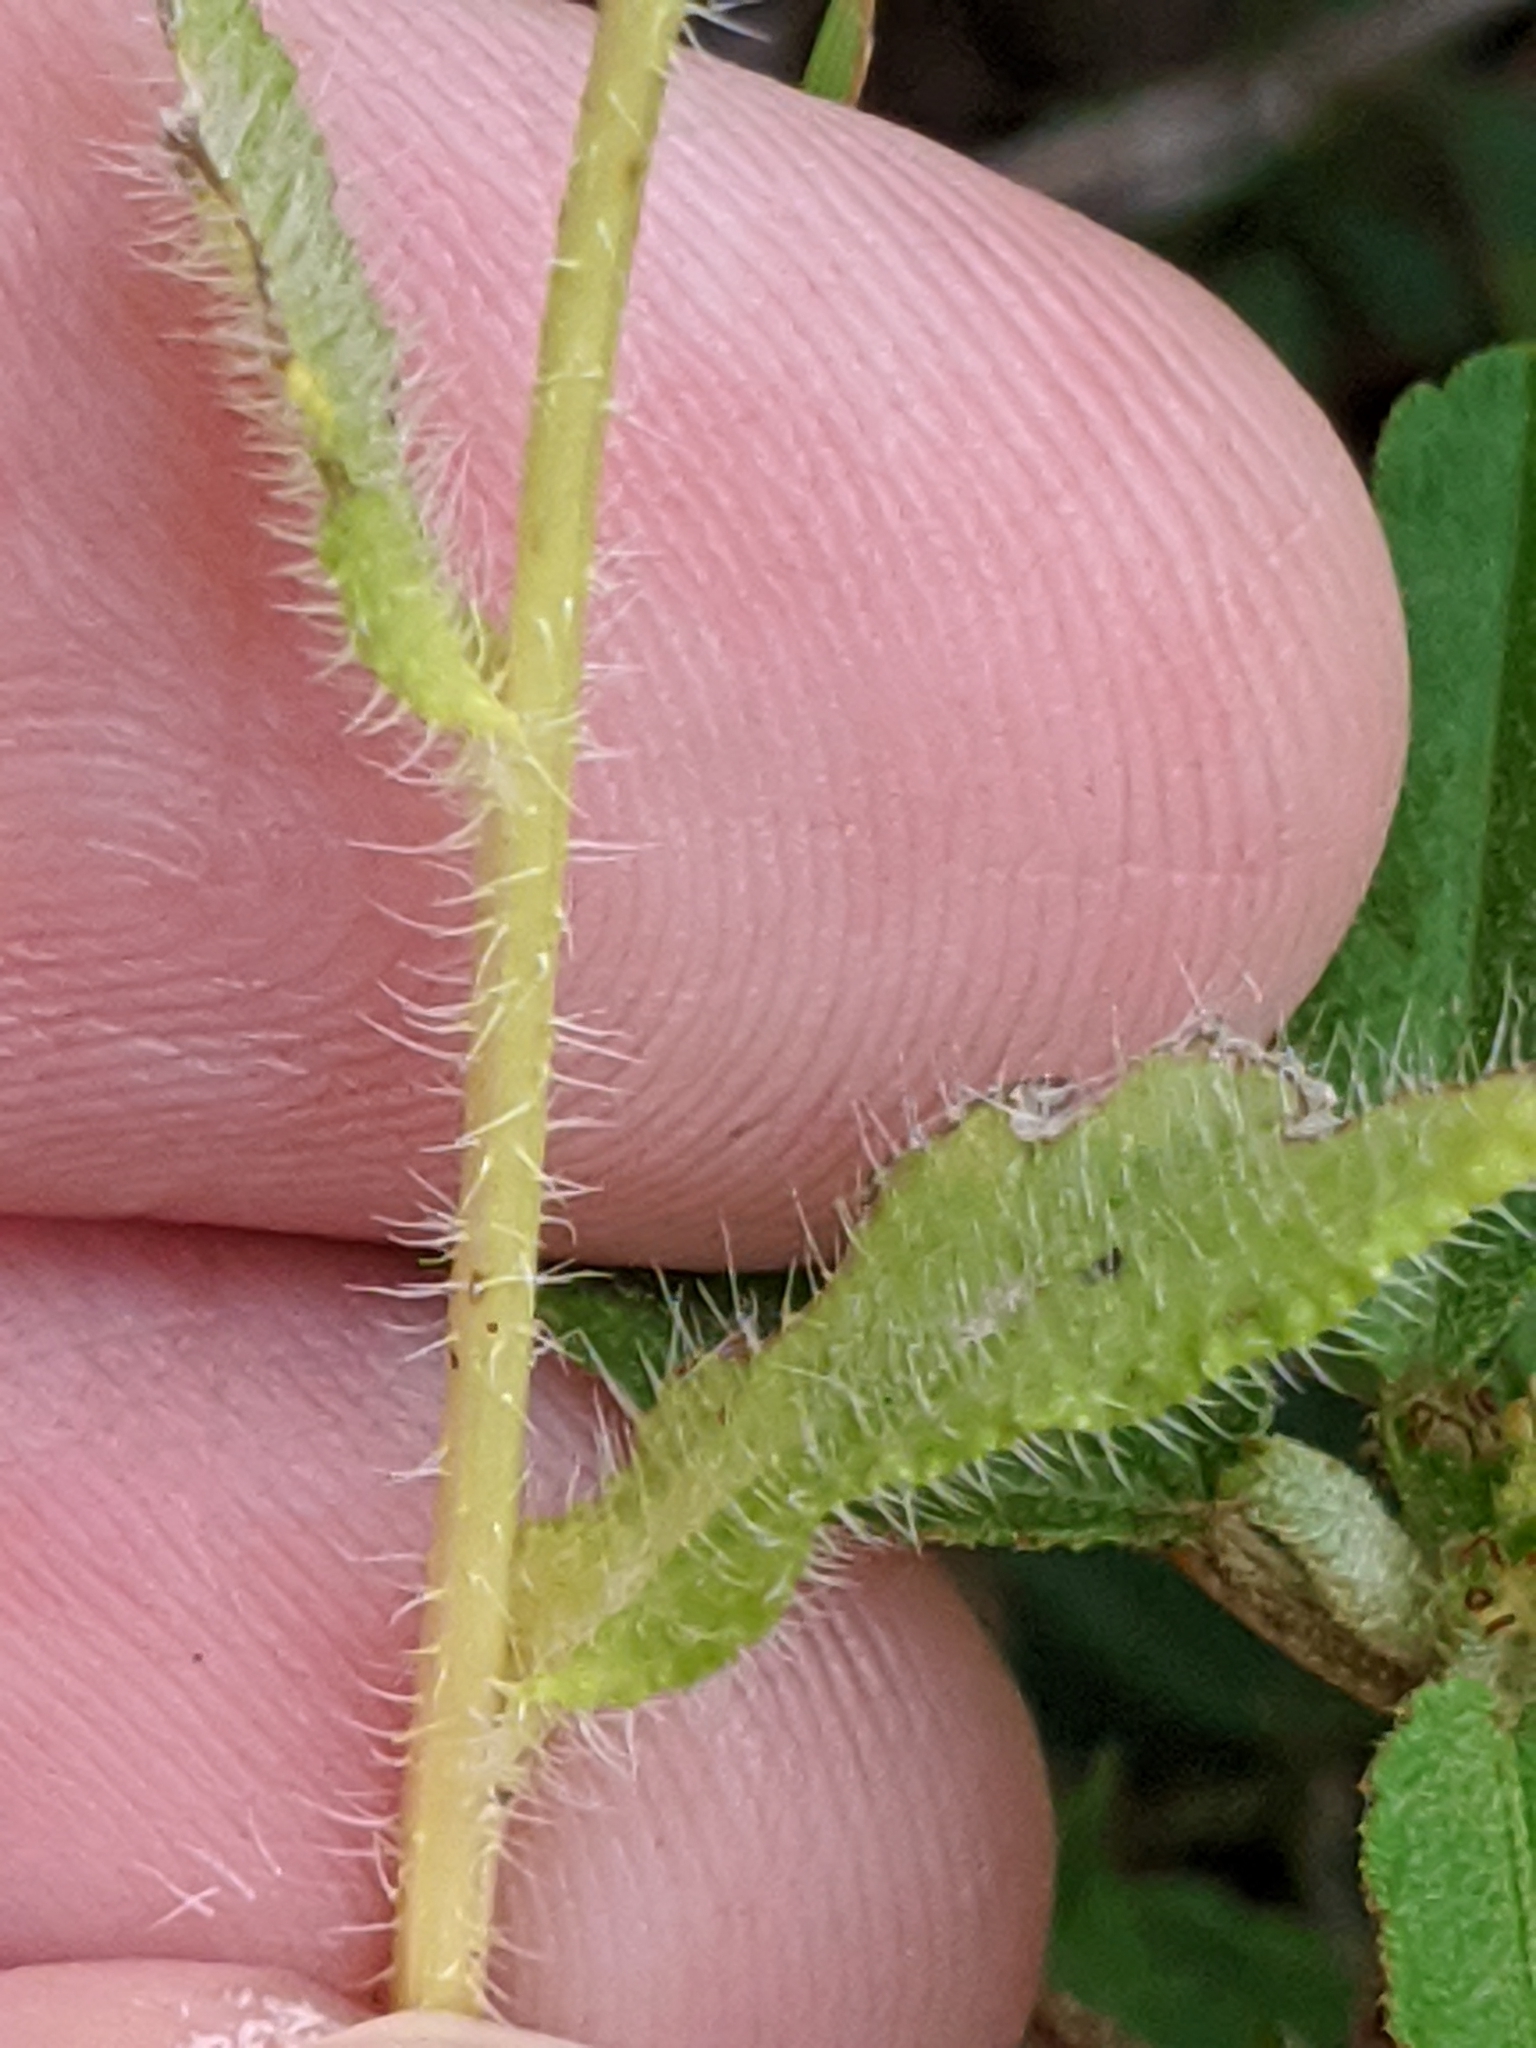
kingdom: Plantae
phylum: Tracheophyta
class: Magnoliopsida
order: Asterales
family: Asteraceae
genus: Rudbeckia
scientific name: Rudbeckia hirta
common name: Black-eyed-susan
